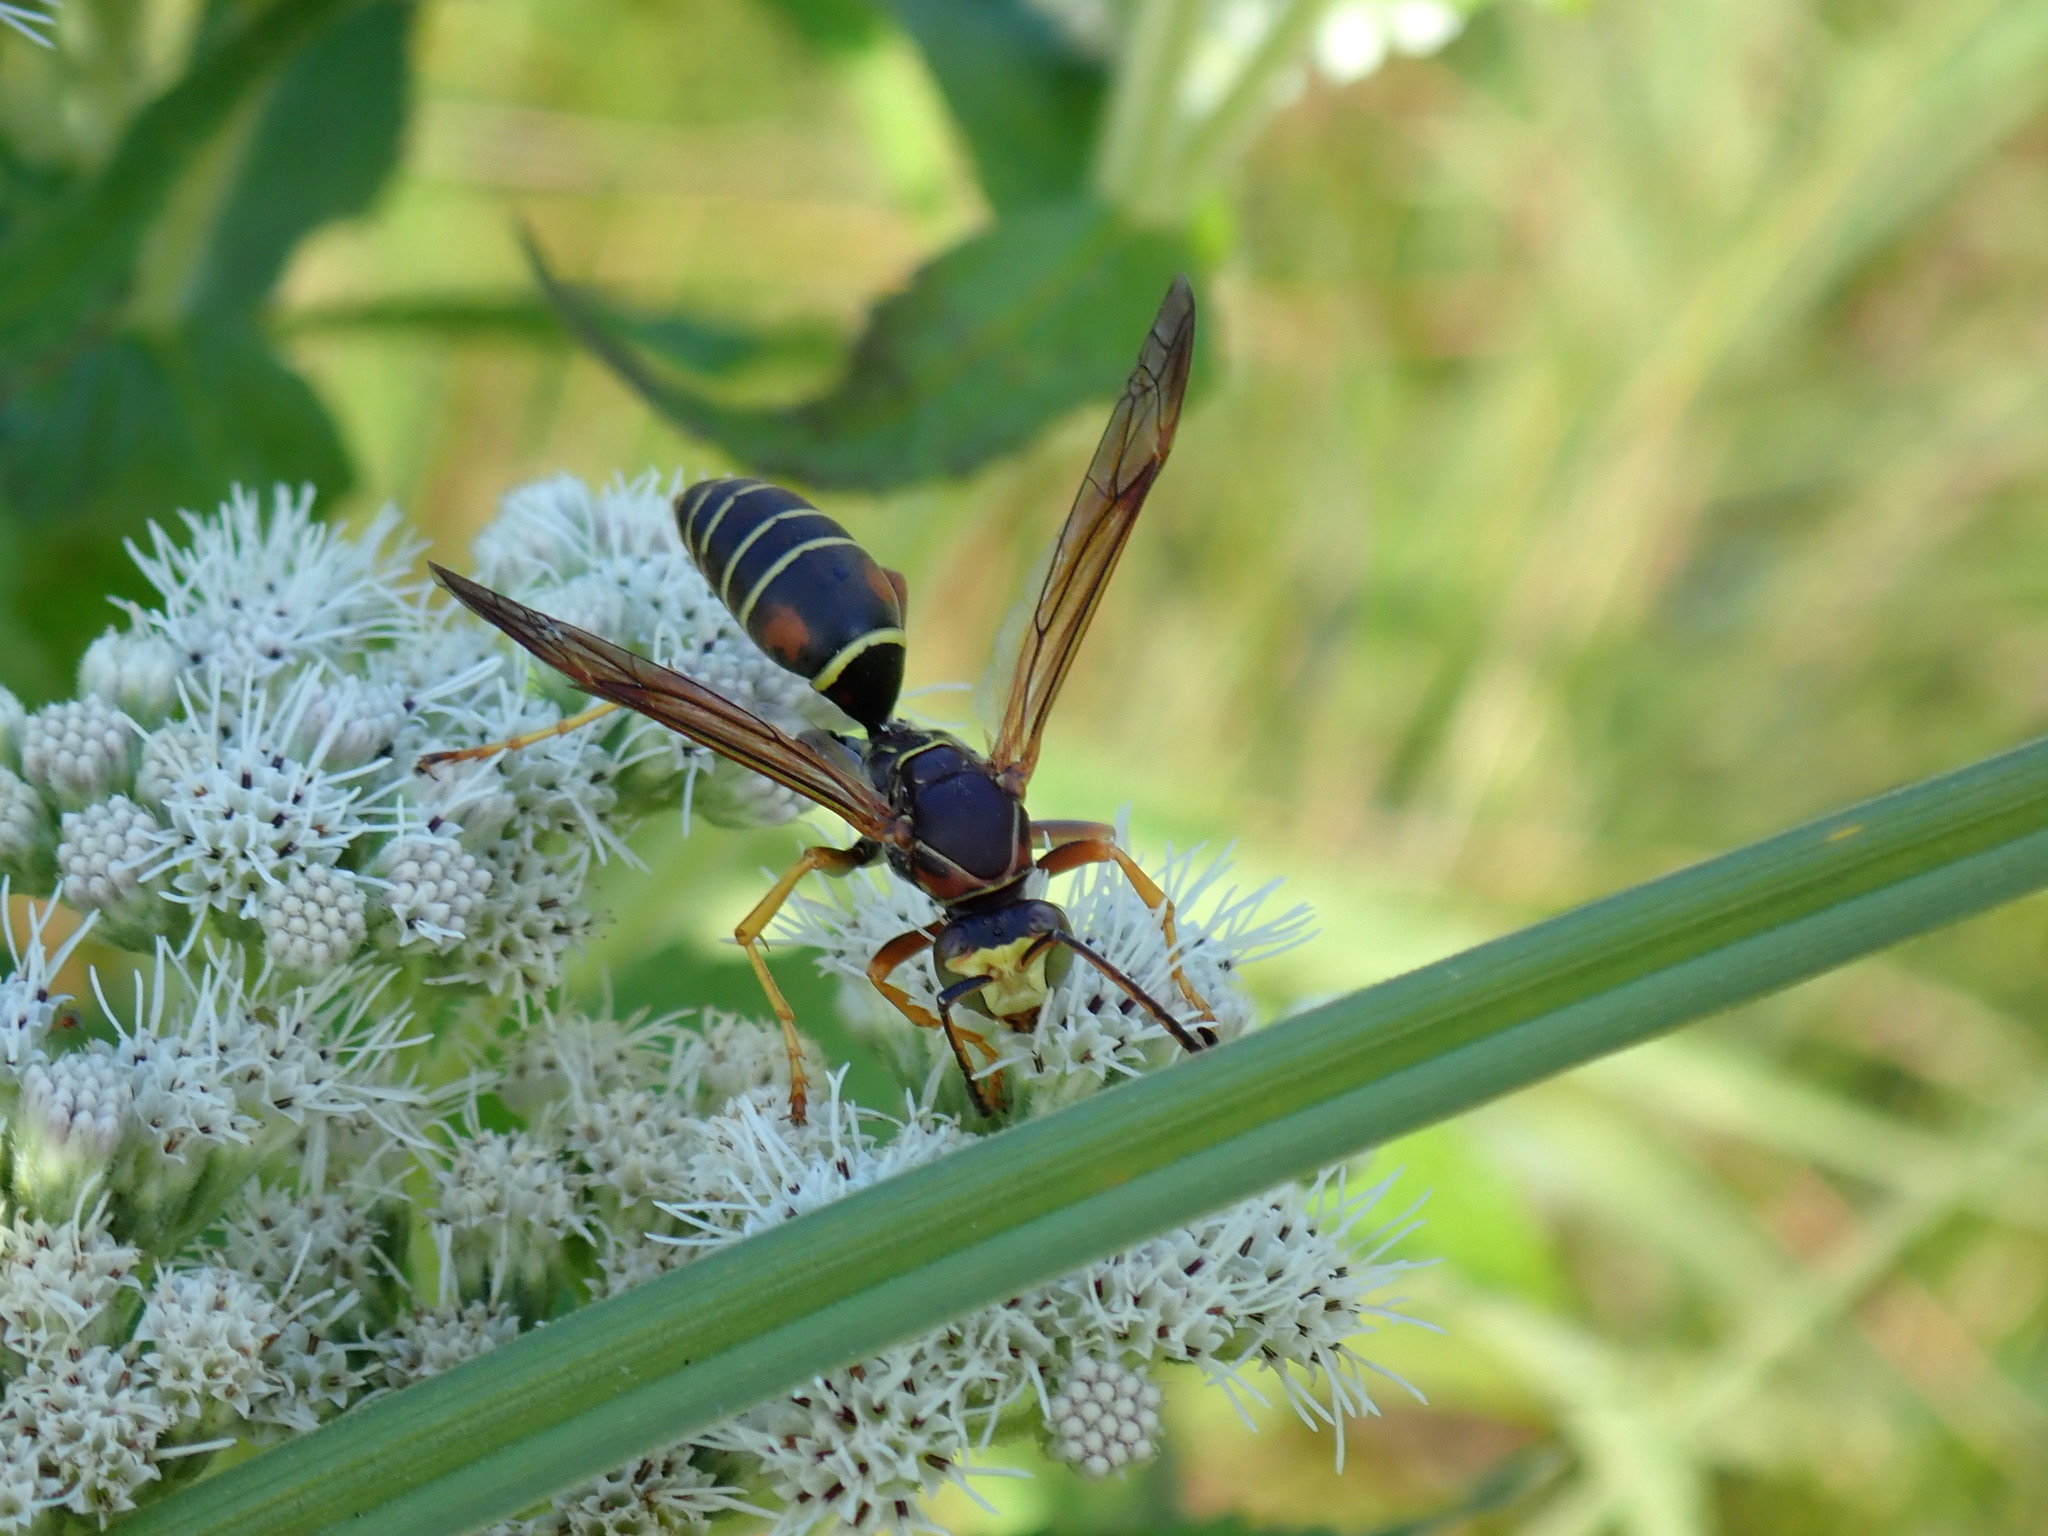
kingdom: Animalia
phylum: Arthropoda
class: Insecta
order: Hymenoptera
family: Eumenidae
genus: Polistes
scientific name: Polistes fuscatus
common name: Dark paper wasp
